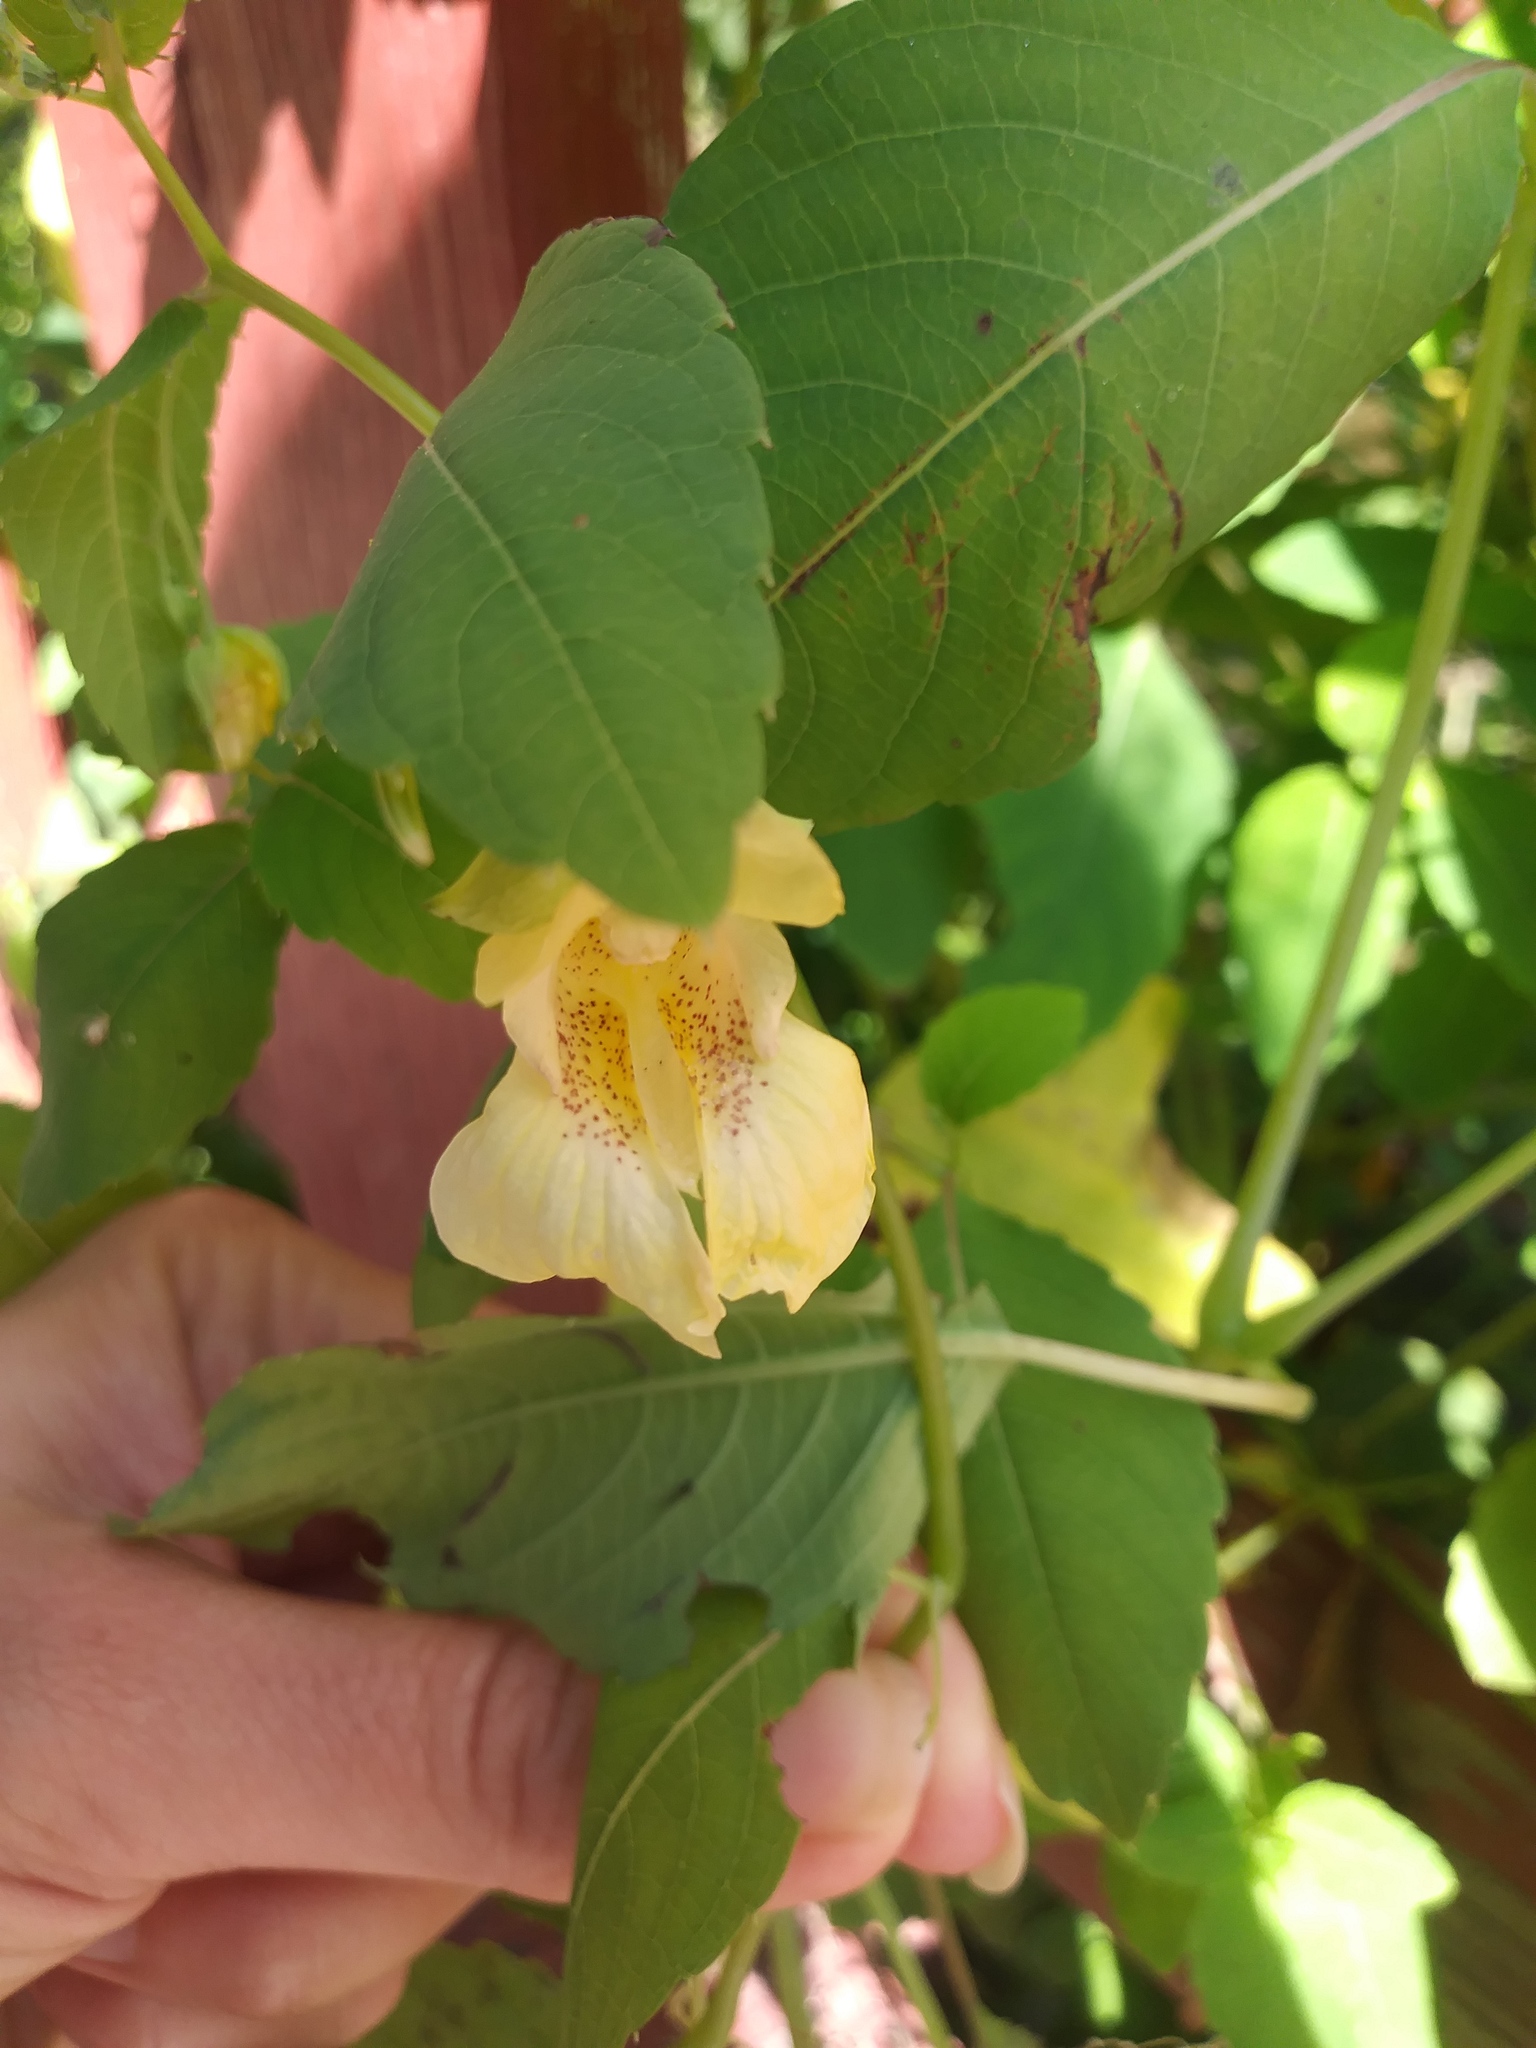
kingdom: Plantae
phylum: Tracheophyta
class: Magnoliopsida
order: Ericales
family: Balsaminaceae
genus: Impatiens
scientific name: Impatiens pallida
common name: Pale snapweed
